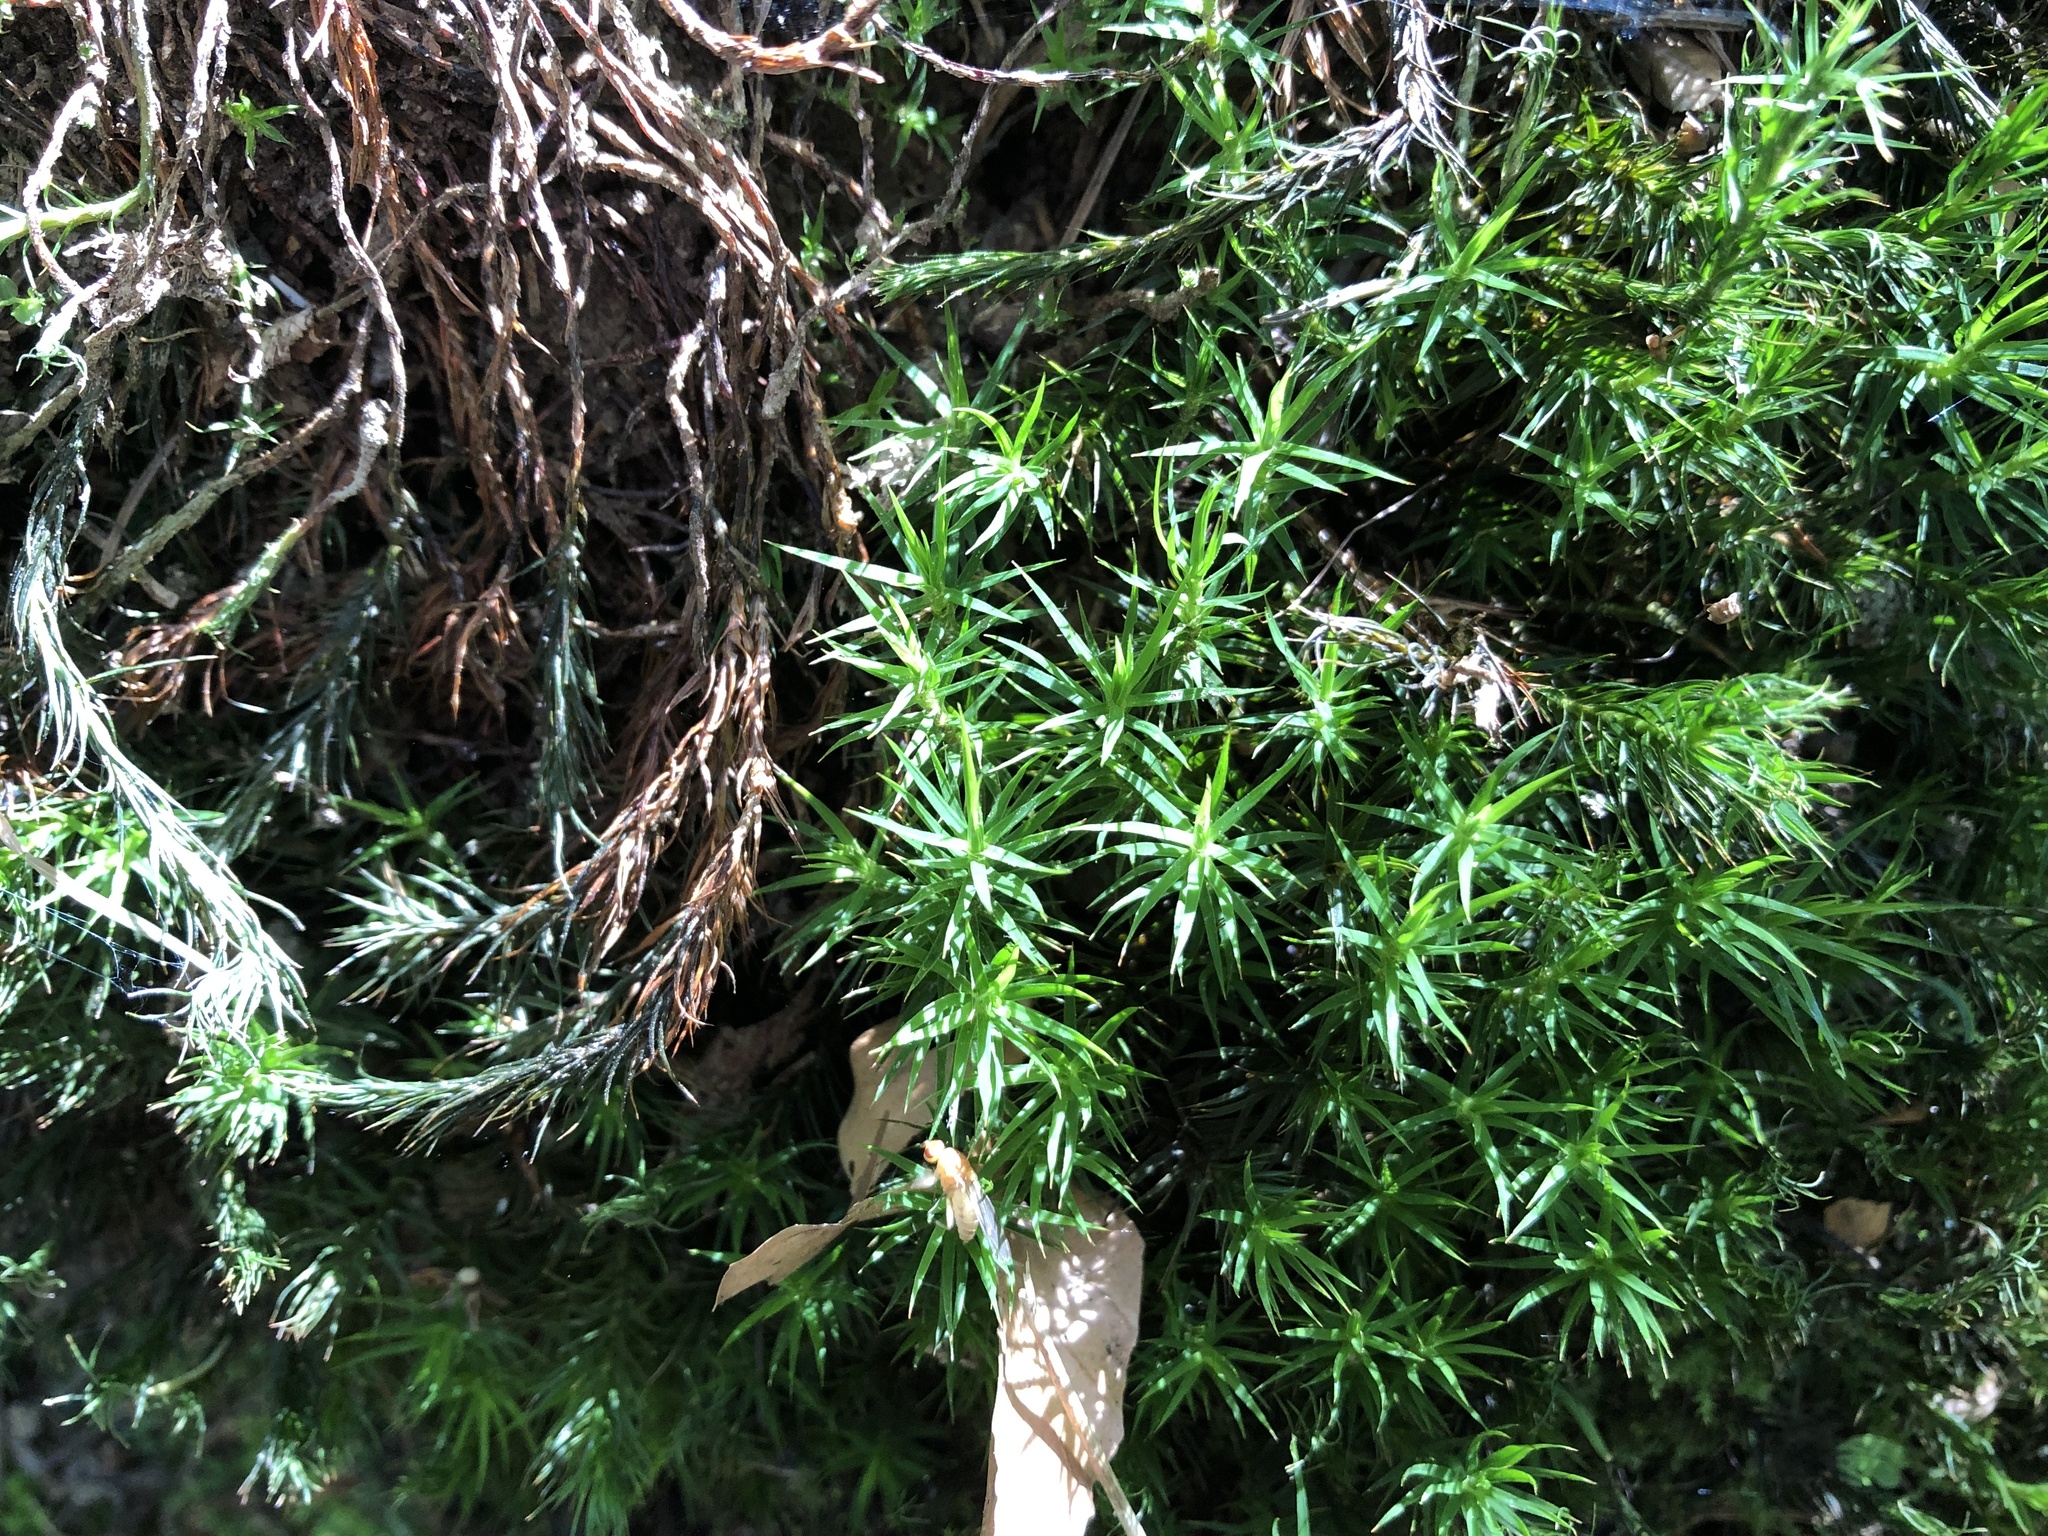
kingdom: Plantae
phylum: Bryophyta
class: Polytrichopsida
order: Polytrichales
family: Polytrichaceae
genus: Polytrichum
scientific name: Polytrichum formosum
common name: Bank haircap moss
